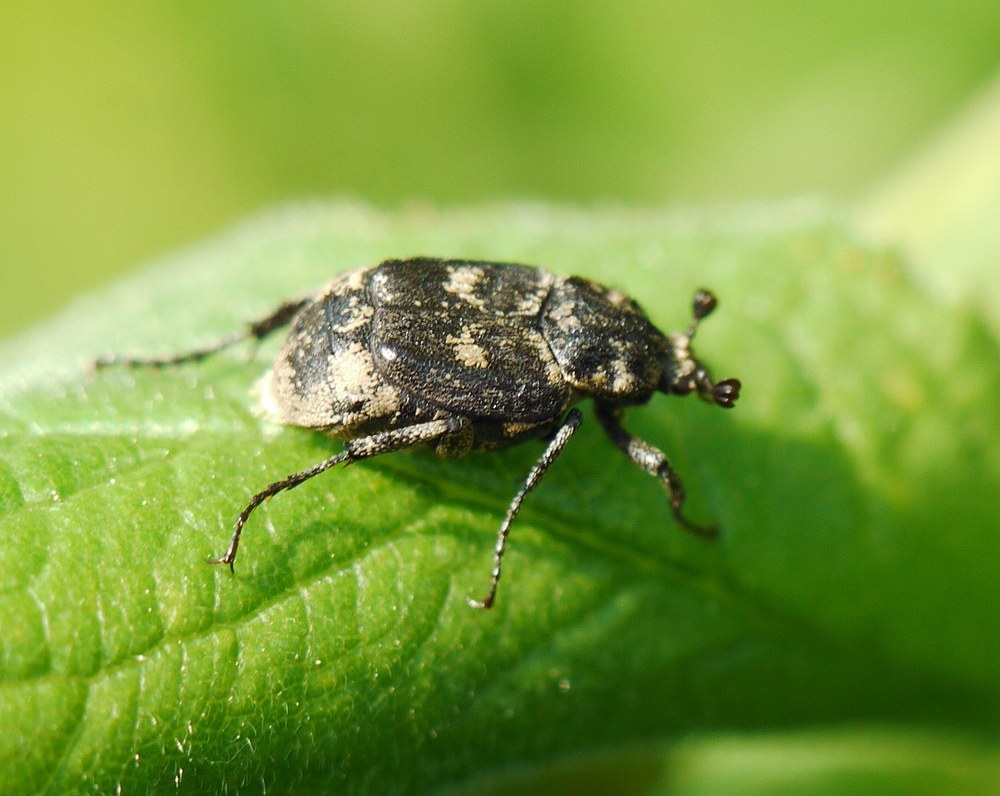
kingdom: Animalia
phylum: Arthropoda
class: Insecta
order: Coleoptera
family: Scarabaeidae
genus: Valgus
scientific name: Valgus hemipterus
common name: Bug flower chafer
